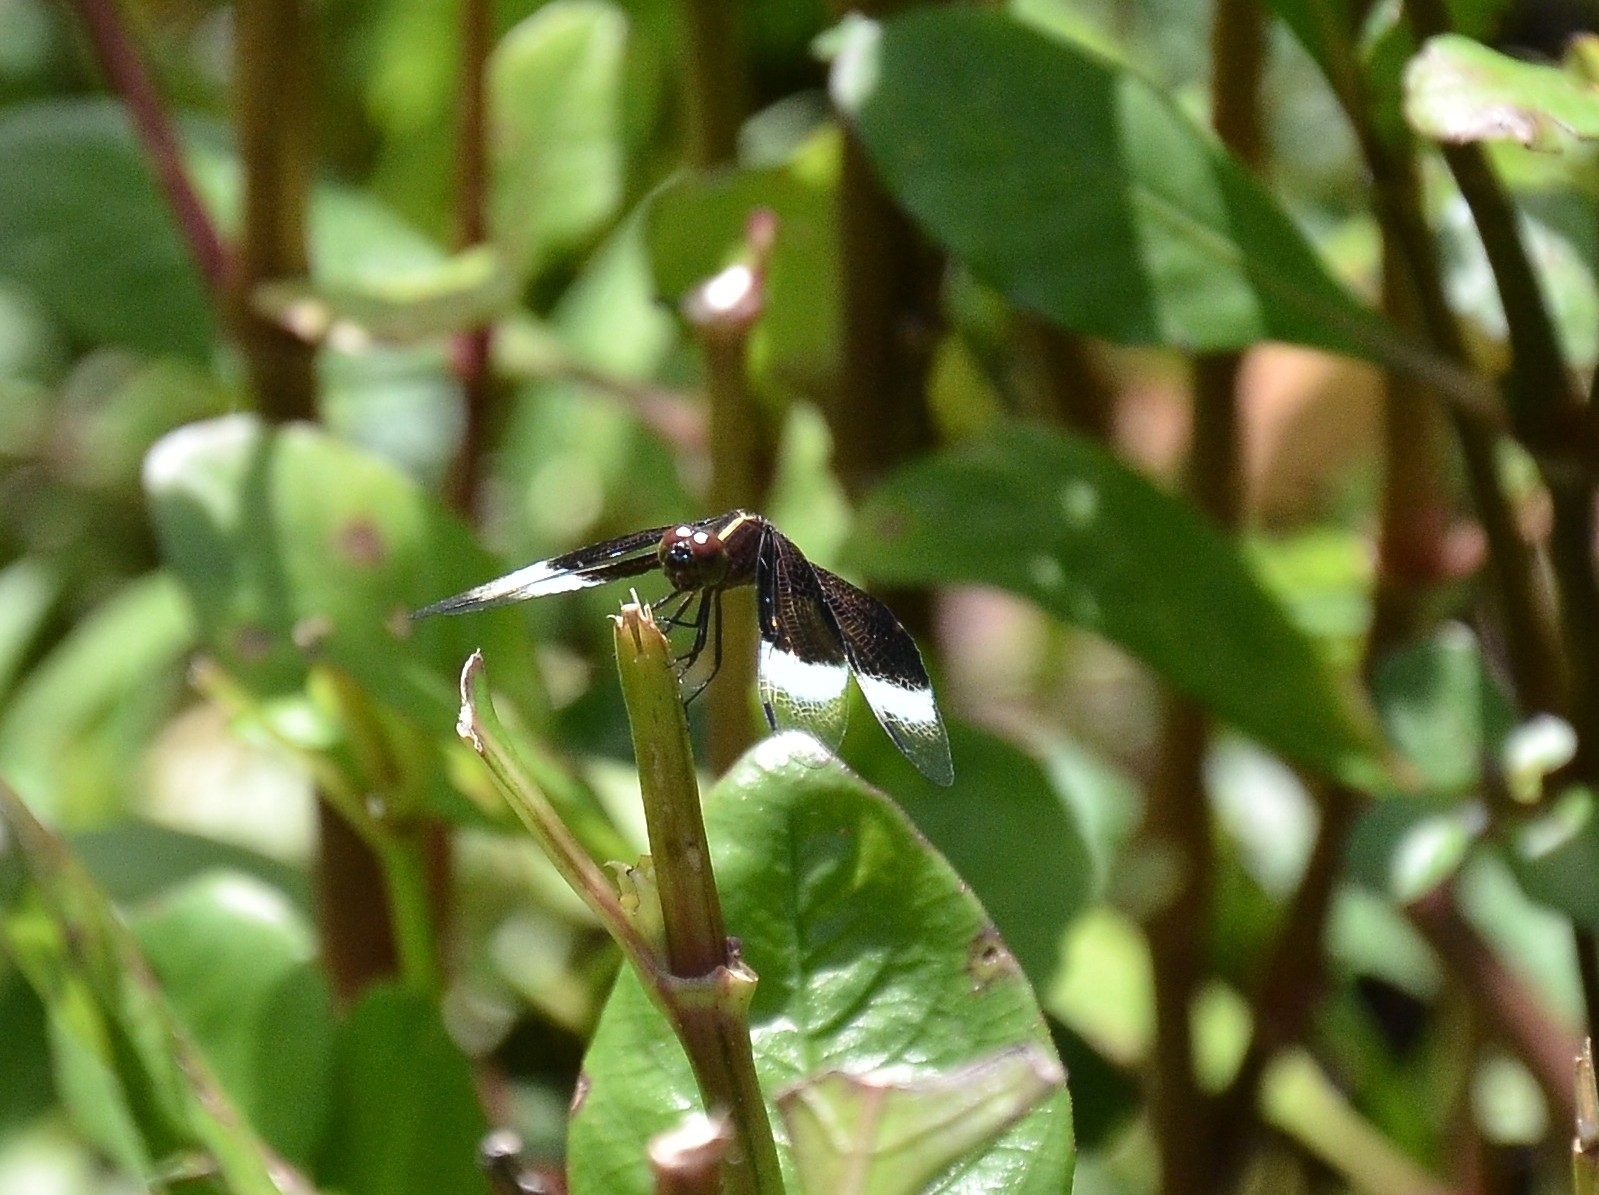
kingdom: Animalia
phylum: Arthropoda
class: Insecta
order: Odonata
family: Libellulidae
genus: Neurothemis
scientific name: Neurothemis tullia
